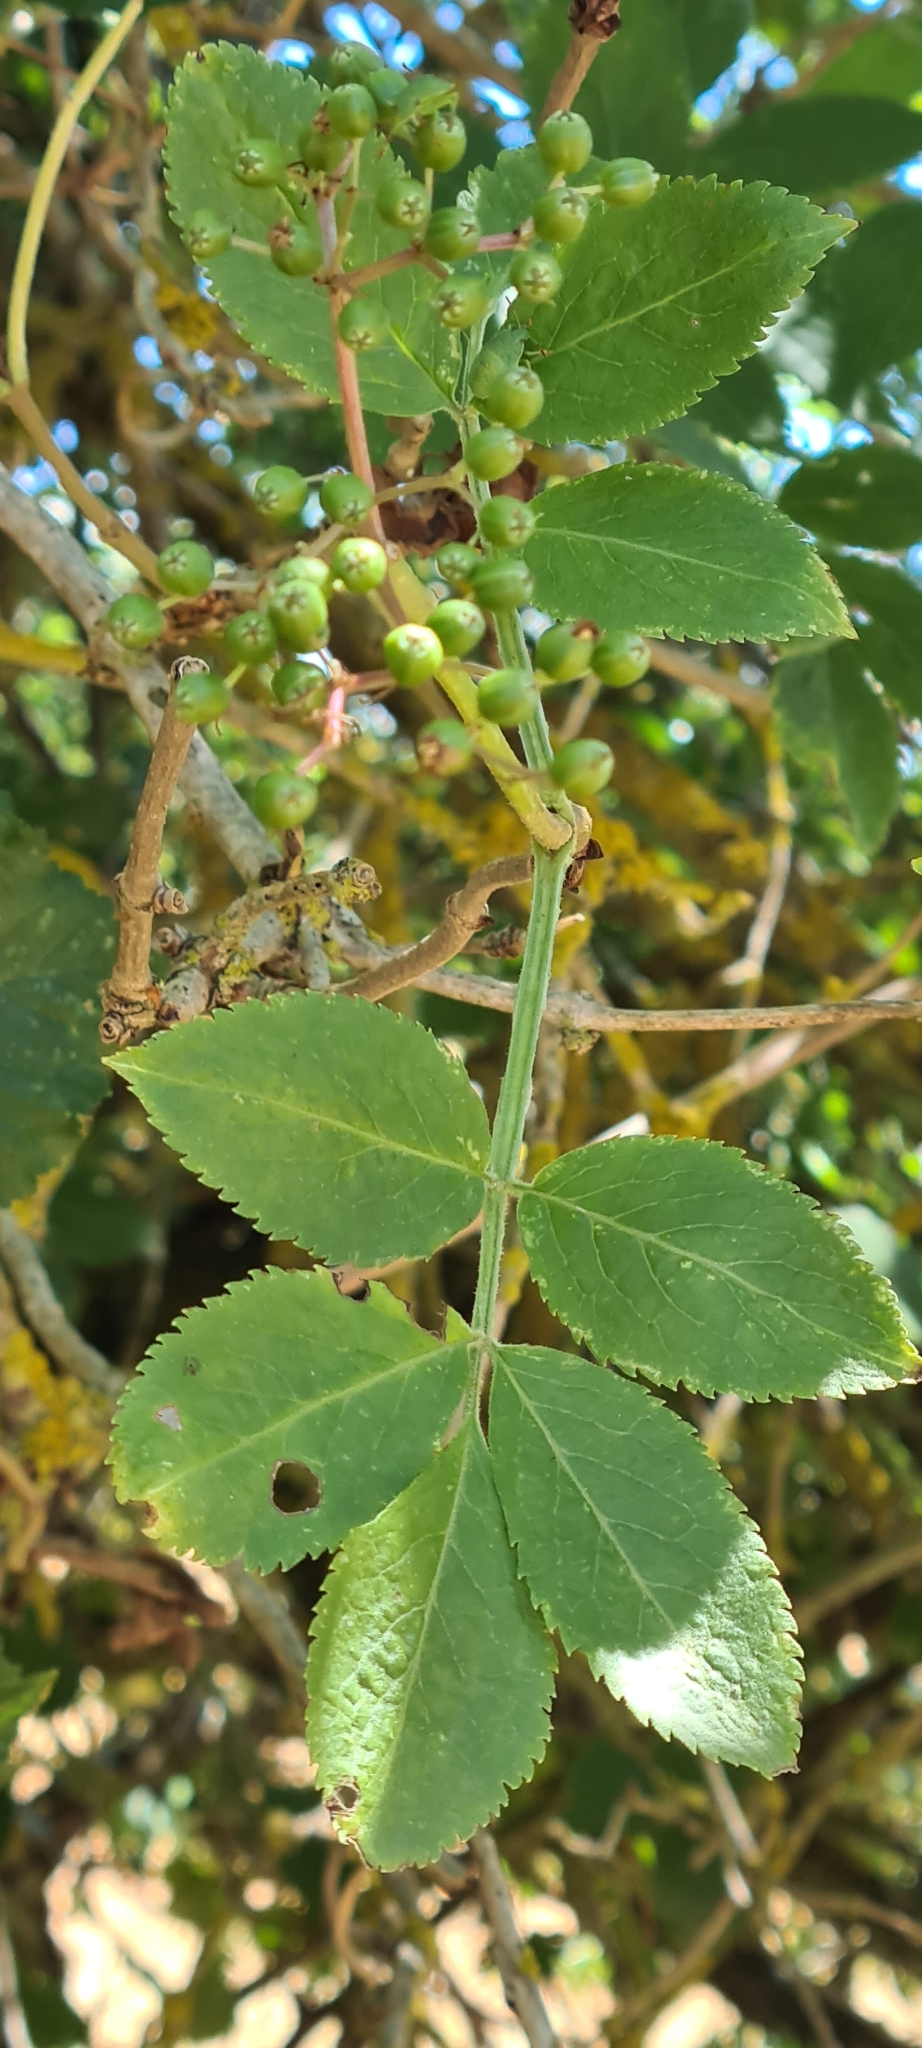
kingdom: Plantae
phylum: Tracheophyta
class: Magnoliopsida
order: Dipsacales
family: Viburnaceae
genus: Sambucus
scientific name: Sambucus nigra
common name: Elder
